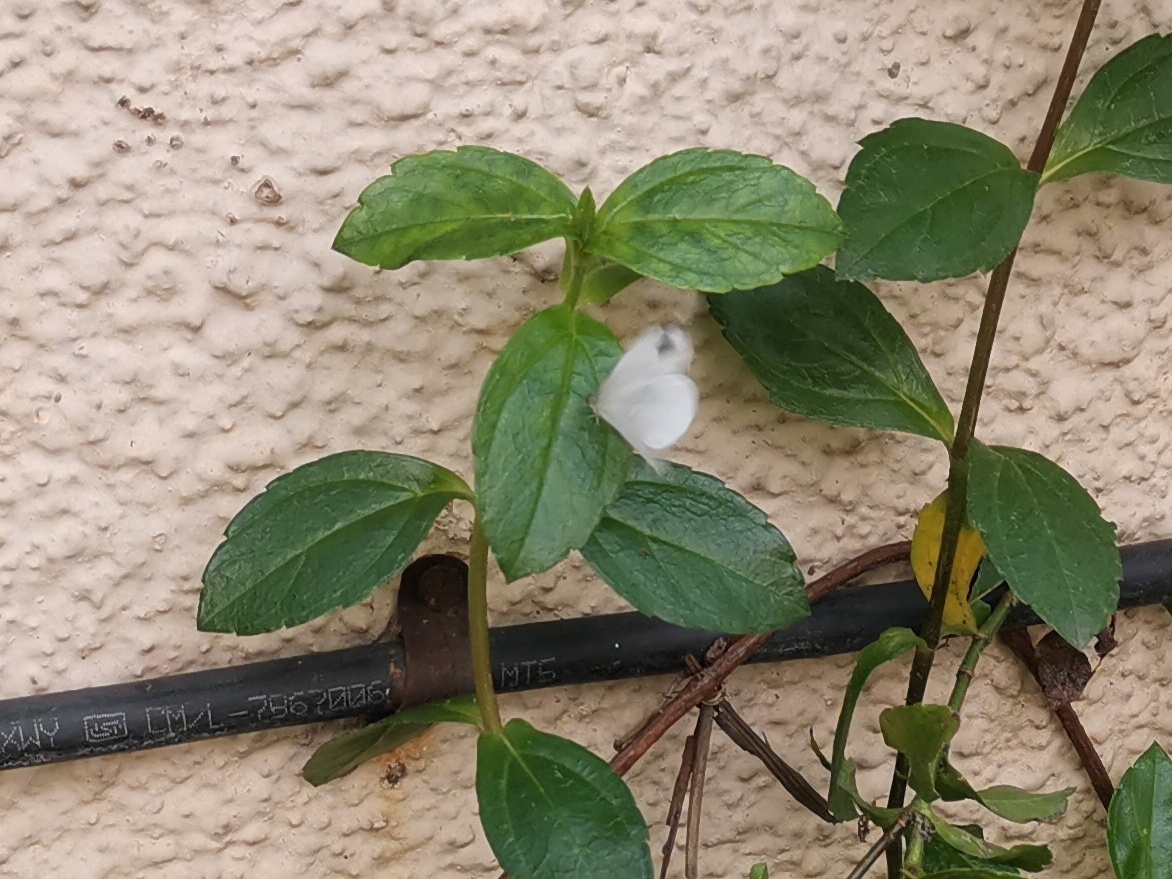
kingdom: Animalia
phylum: Arthropoda
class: Insecta
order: Lepidoptera
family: Pieridae
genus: Leptosia
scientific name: Leptosia nina
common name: Psyche
